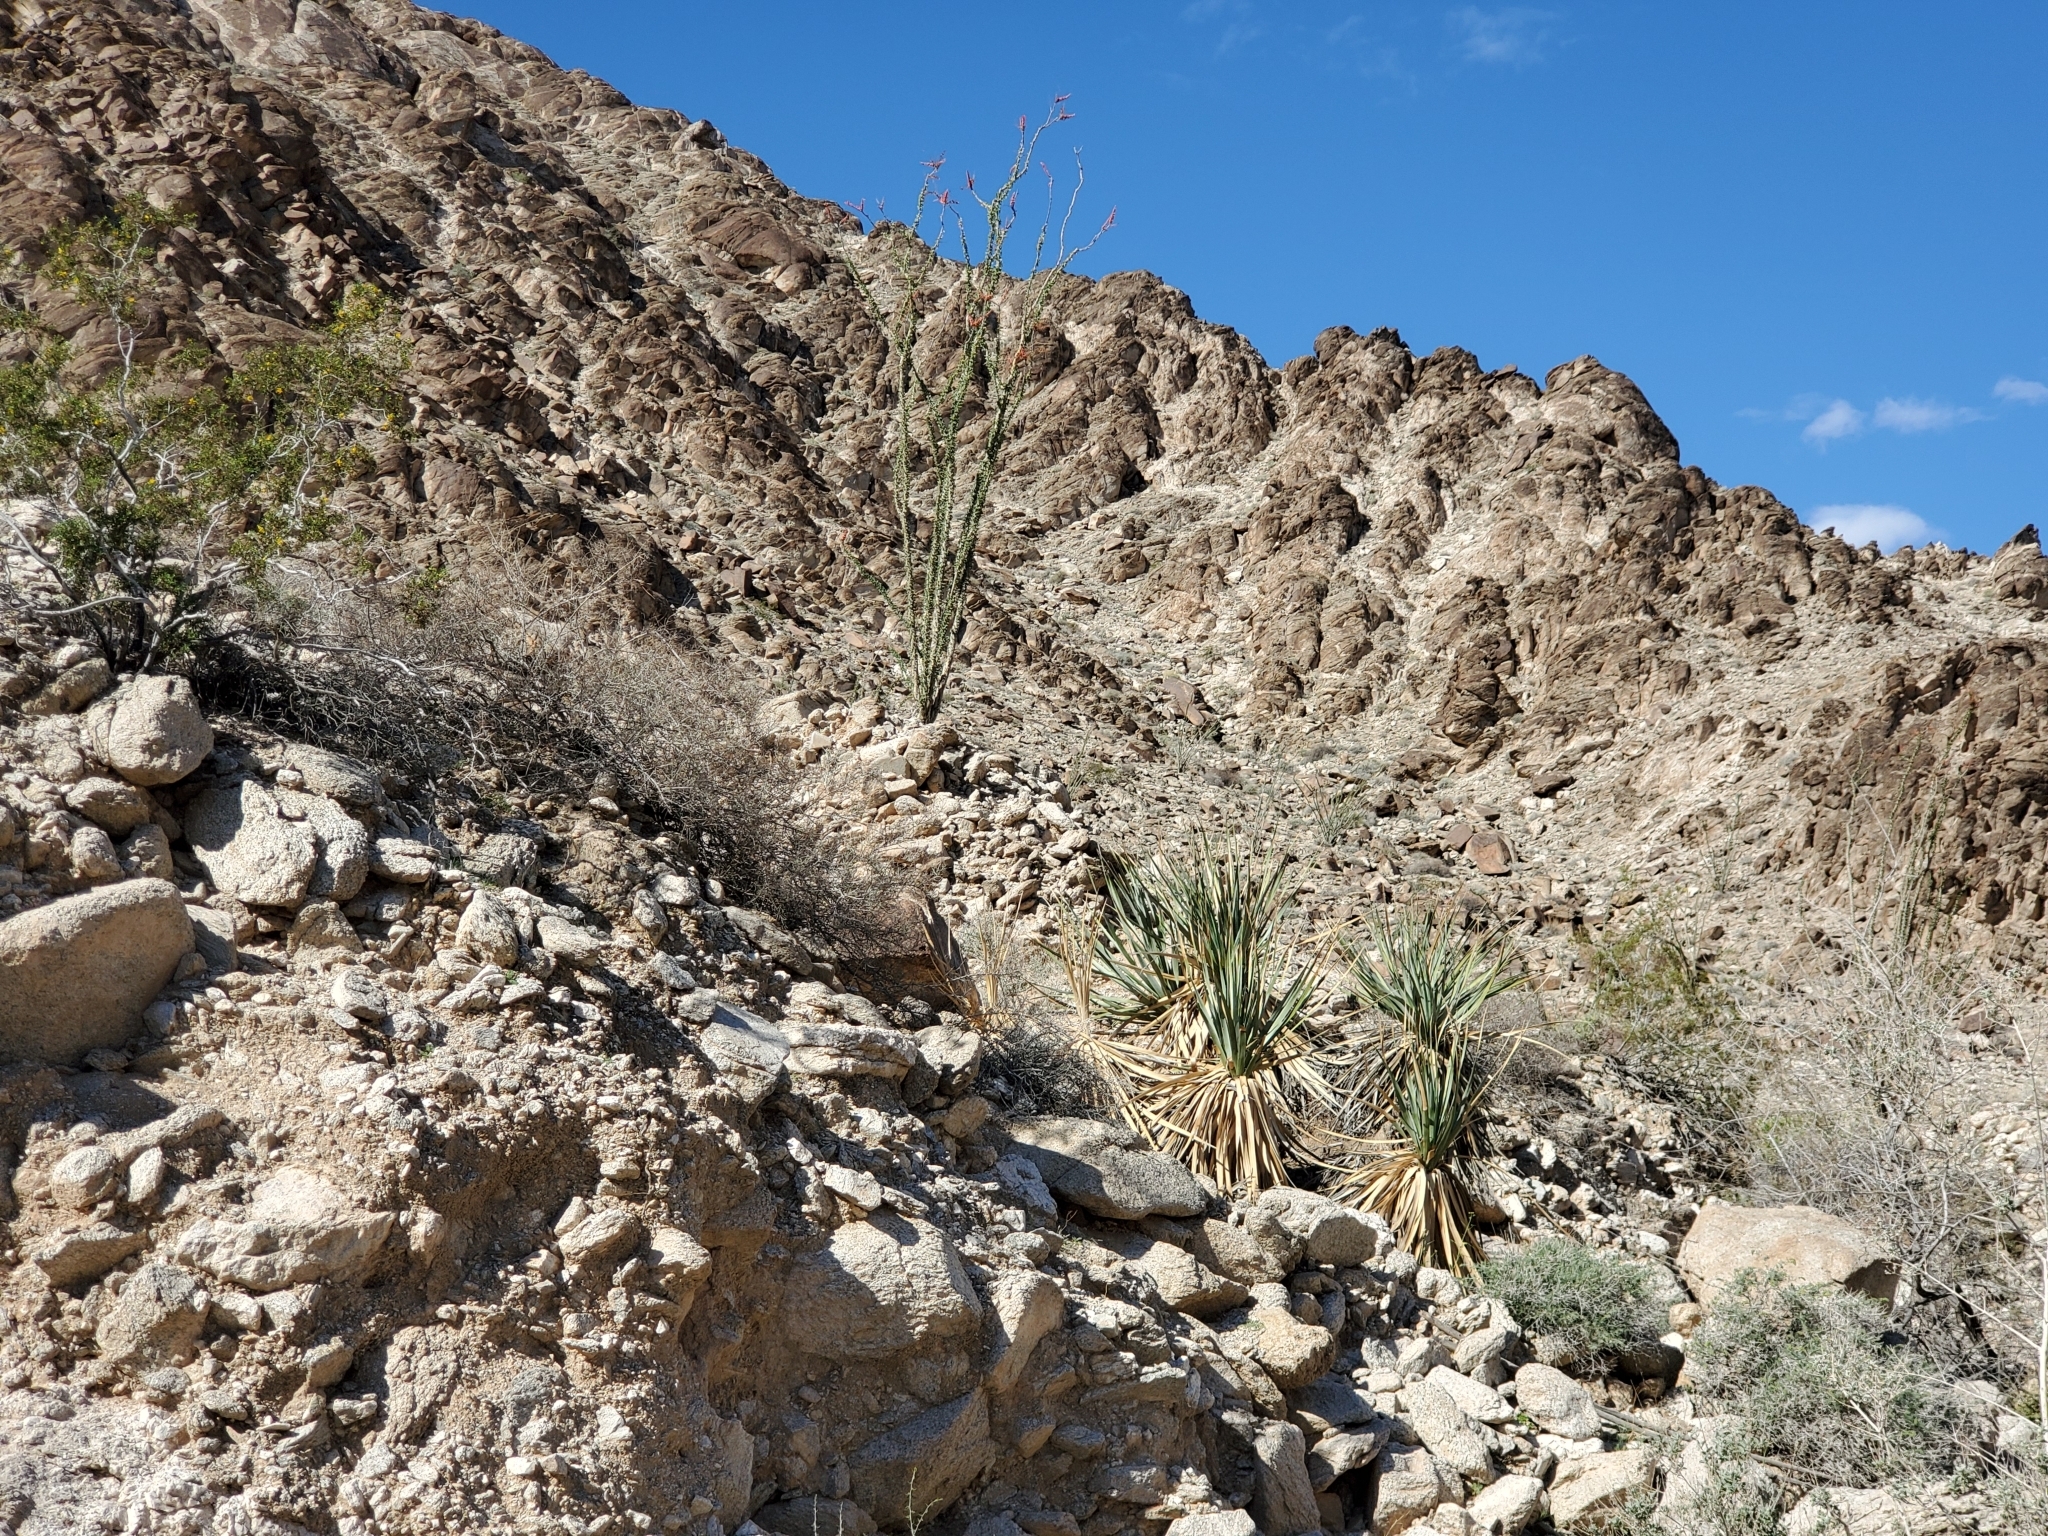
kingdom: Plantae
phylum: Tracheophyta
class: Liliopsida
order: Asparagales
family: Asparagaceae
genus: Nolina
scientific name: Nolina bigelovii
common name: Bigelow bear-grass
